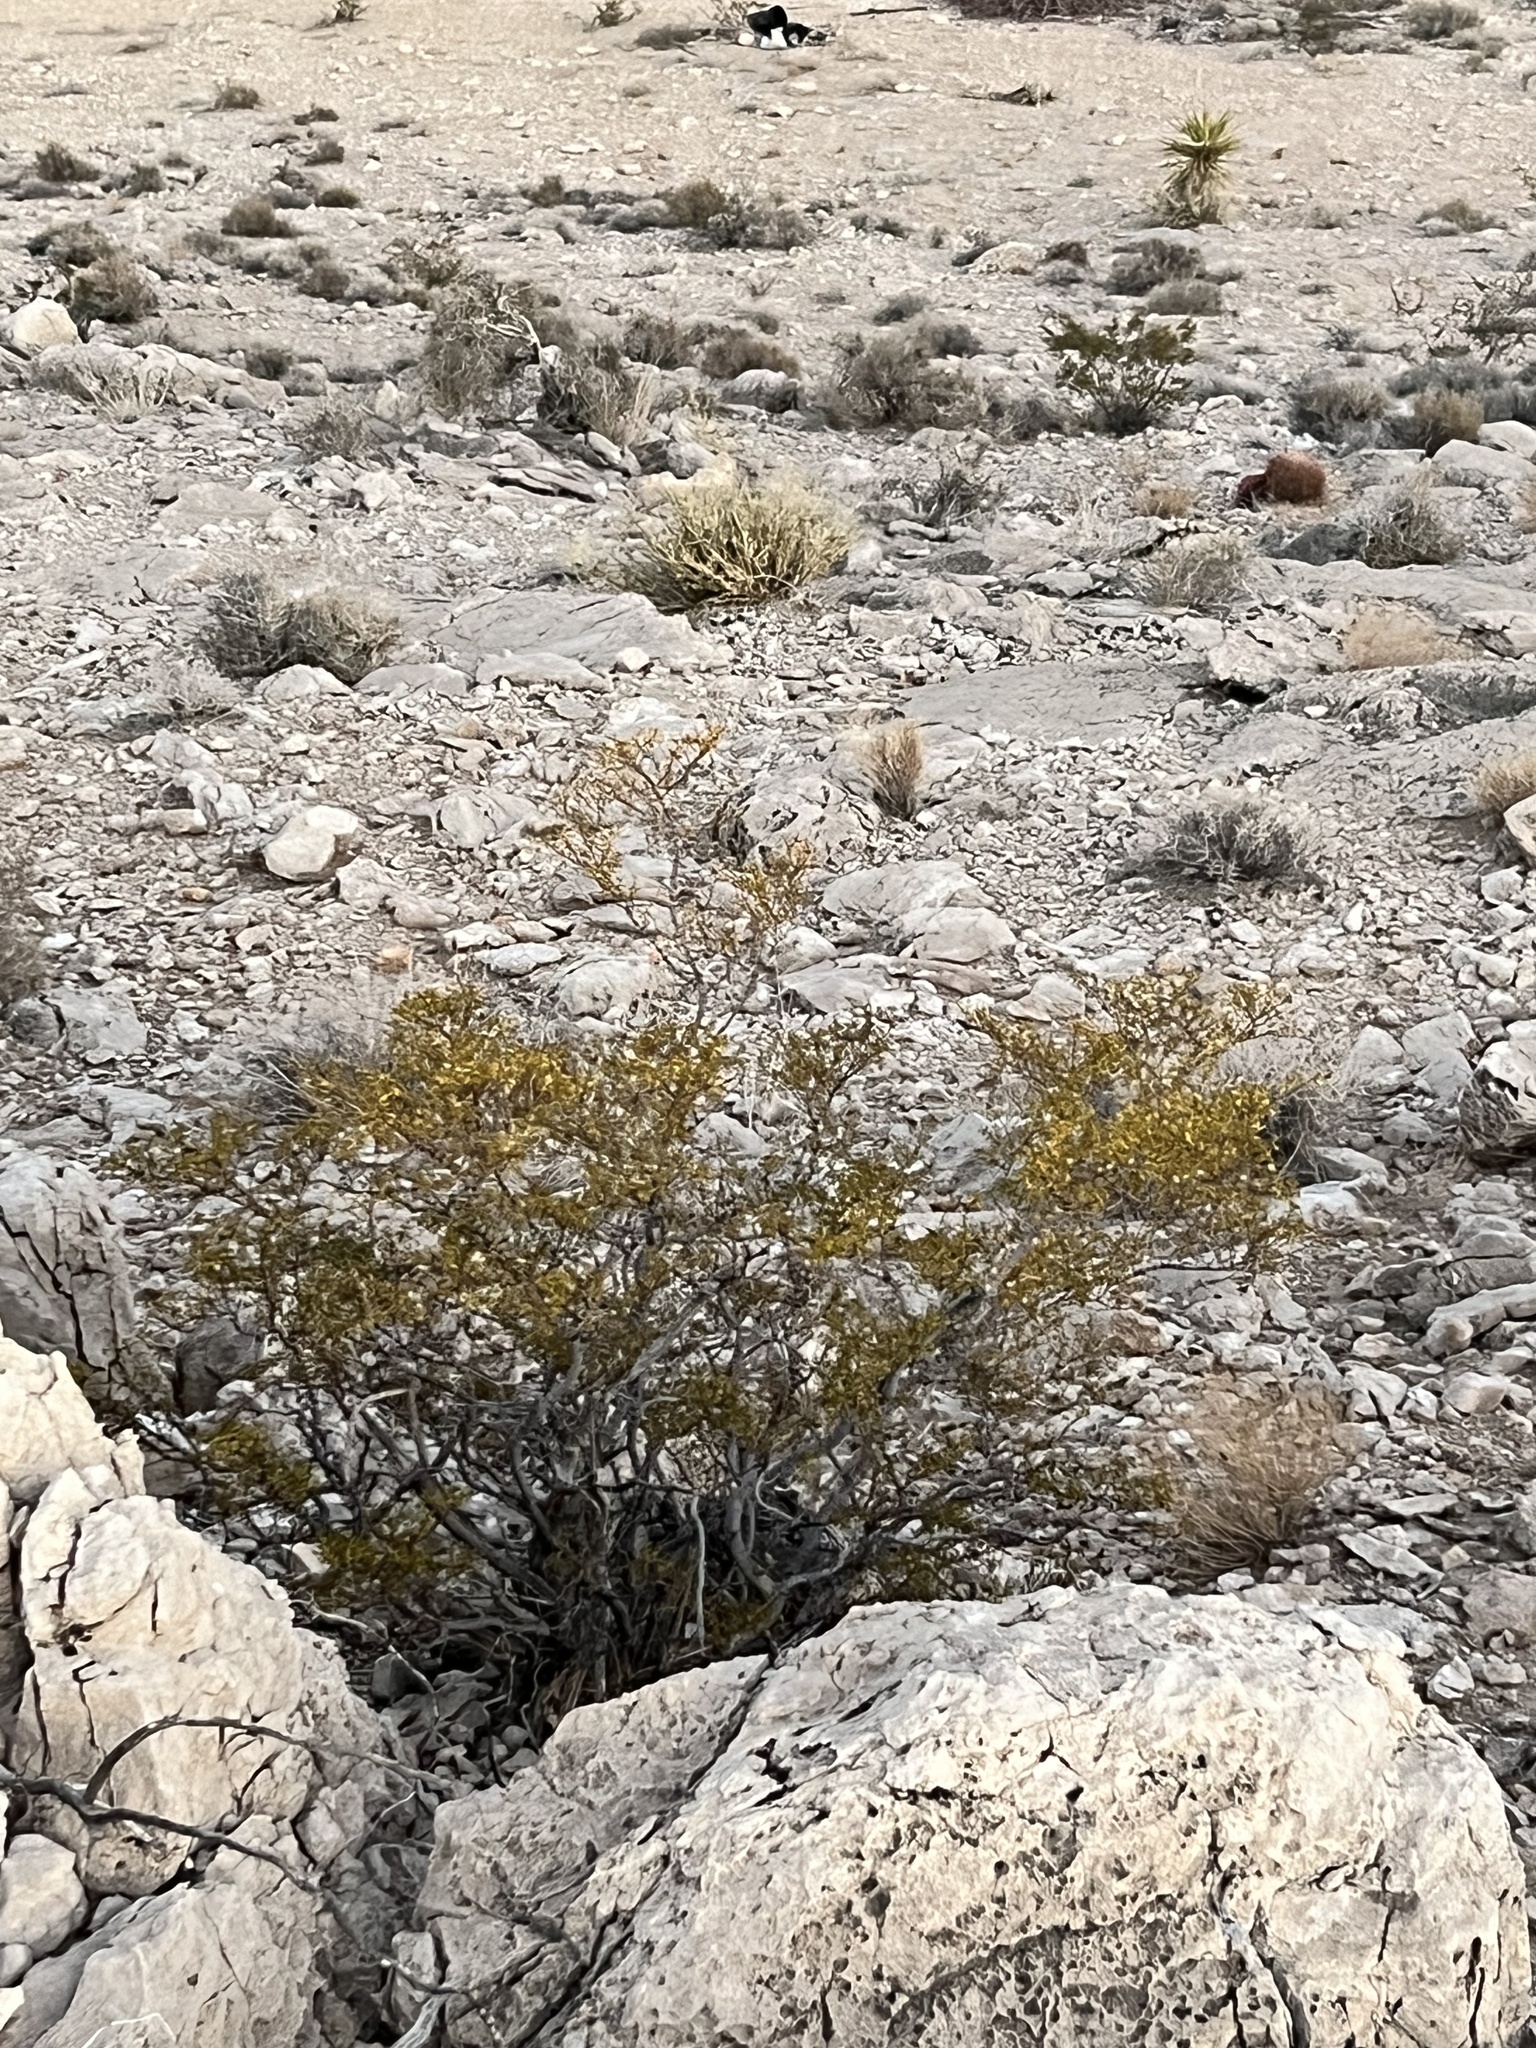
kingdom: Plantae
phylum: Tracheophyta
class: Magnoliopsida
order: Zygophyllales
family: Zygophyllaceae
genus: Larrea
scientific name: Larrea tridentata
